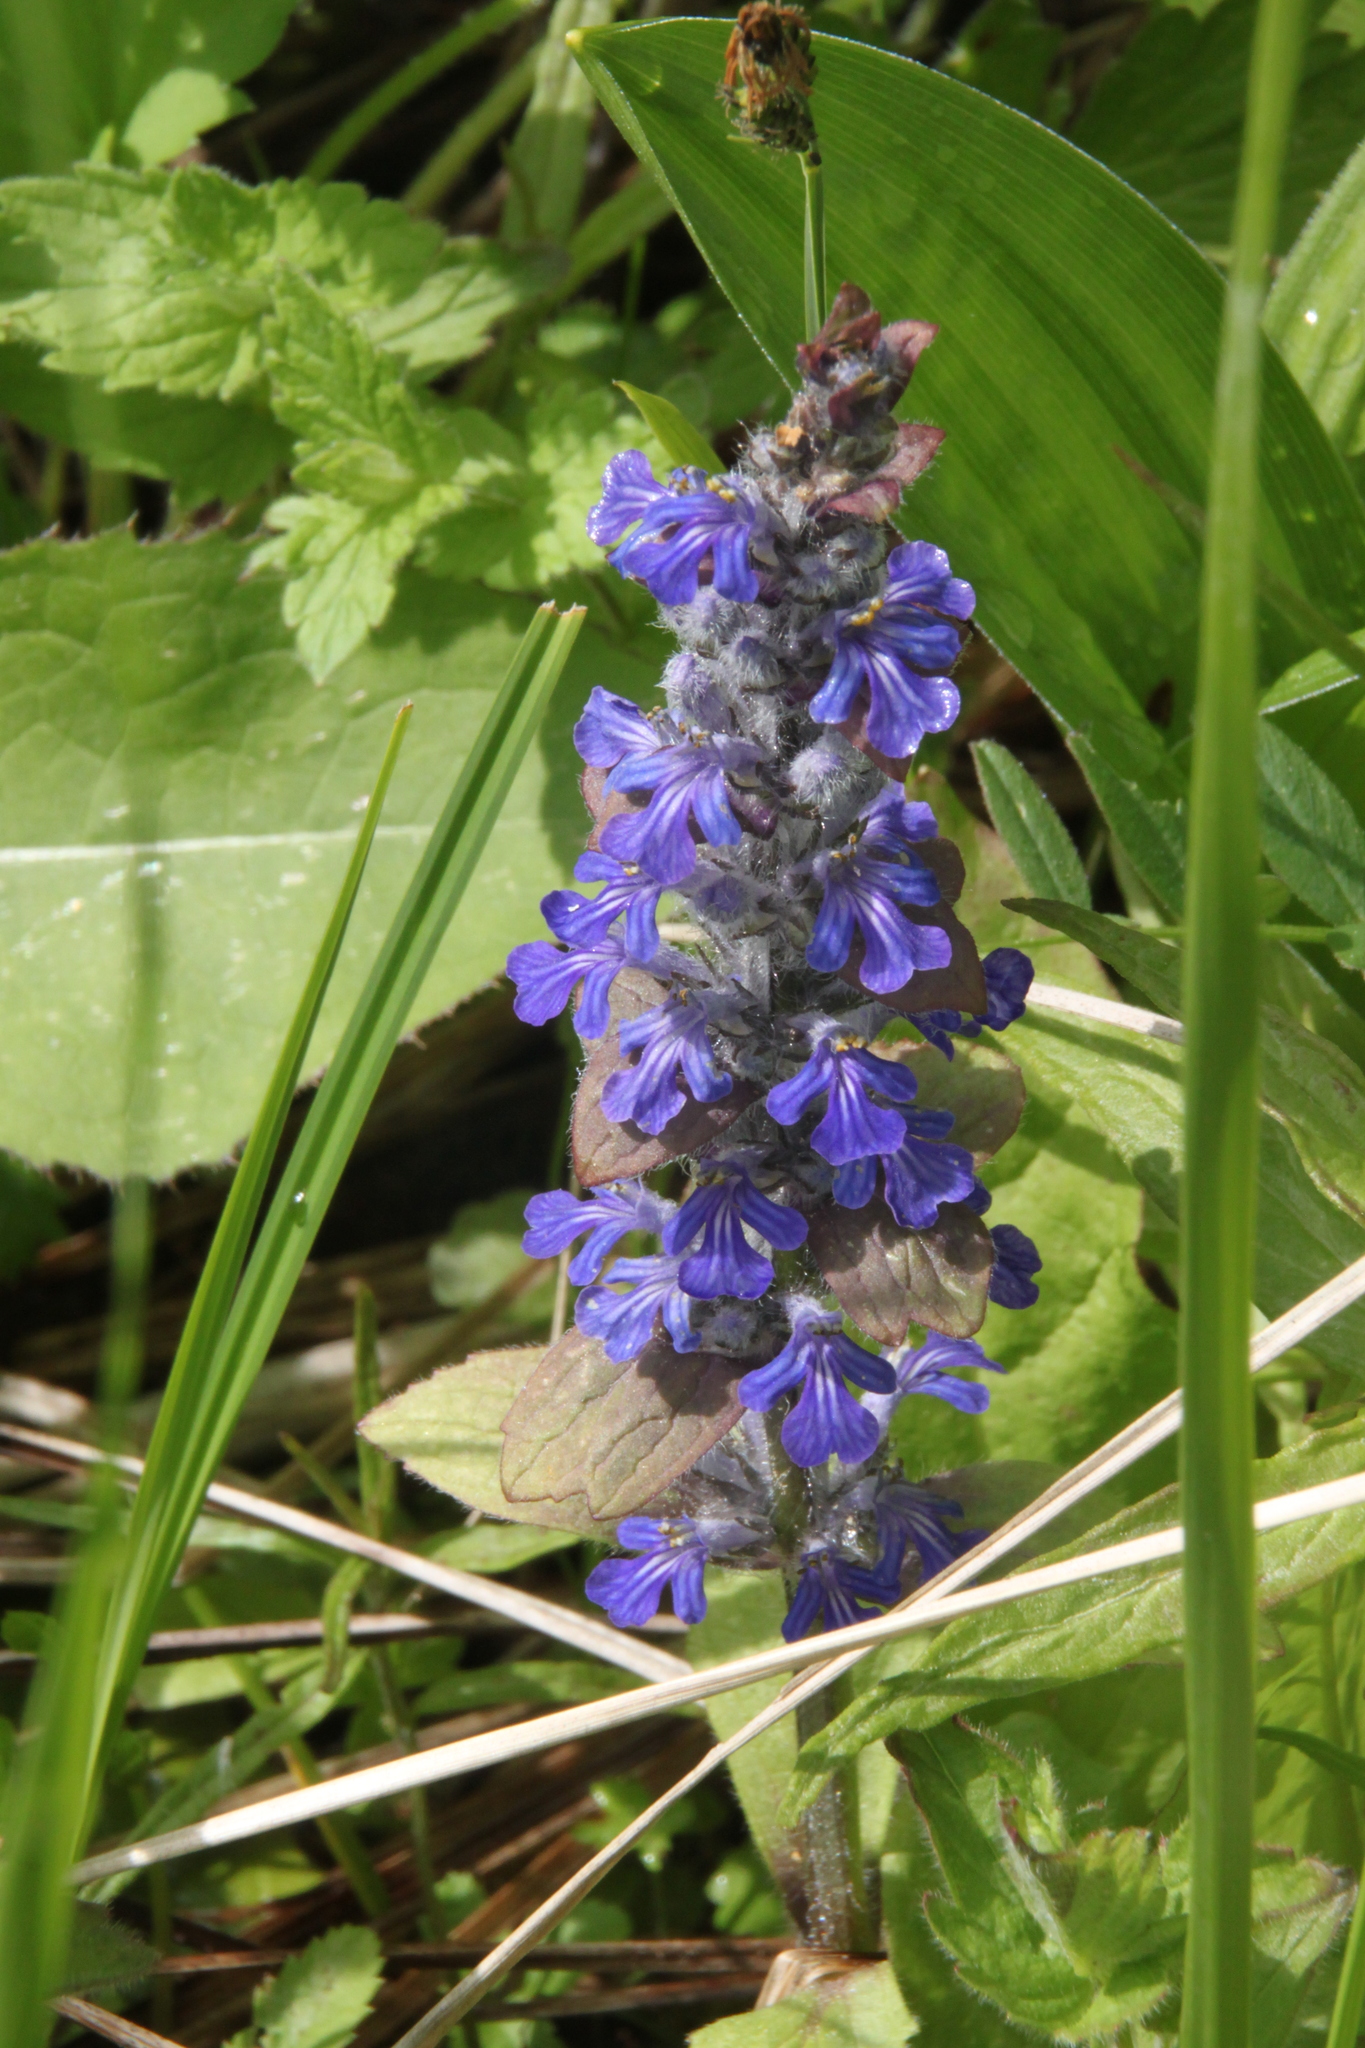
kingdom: Plantae
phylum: Tracheophyta
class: Magnoliopsida
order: Lamiales
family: Lamiaceae
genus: Ajuga
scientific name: Ajuga reptans
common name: Bugle
